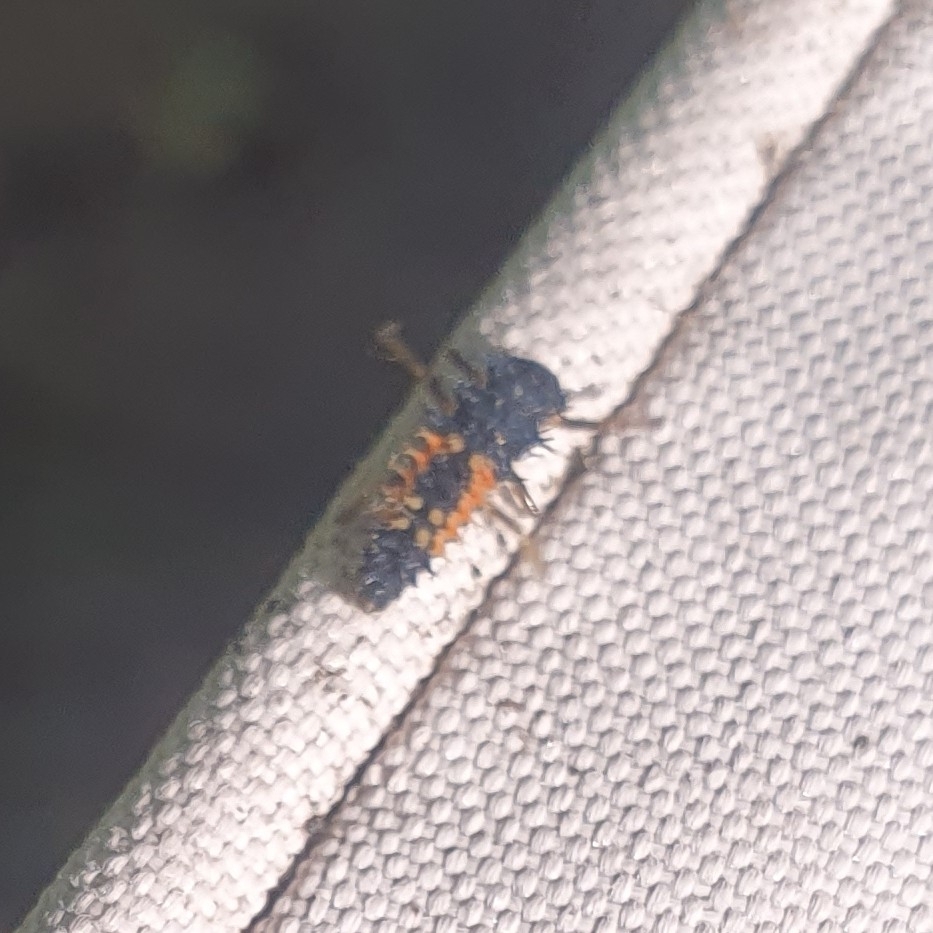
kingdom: Animalia
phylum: Arthropoda
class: Insecta
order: Coleoptera
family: Coccinellidae
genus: Harmonia
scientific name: Harmonia axyridis
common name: Harlequin ladybird
